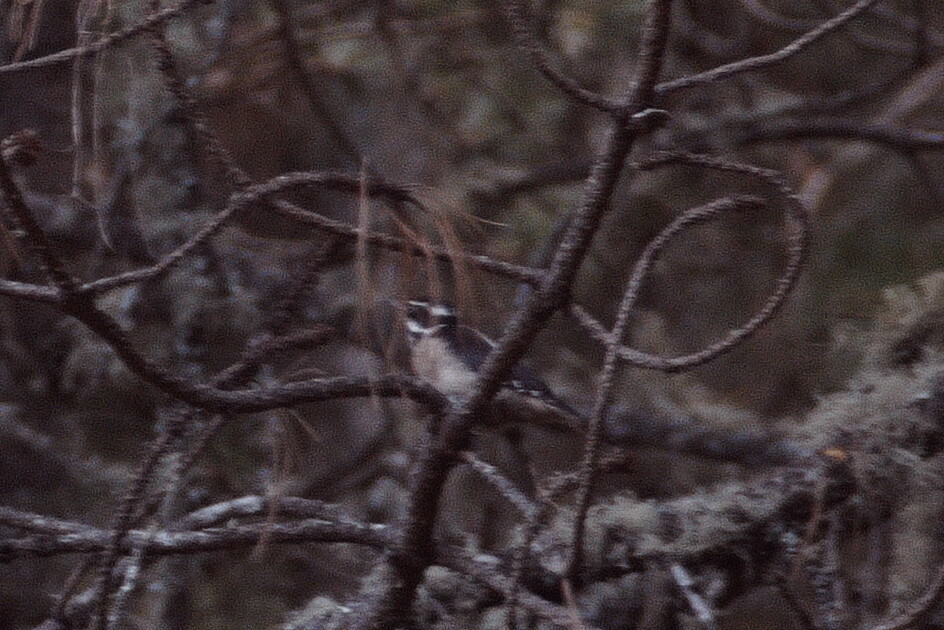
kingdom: Animalia
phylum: Chordata
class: Aves
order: Piciformes
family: Picidae
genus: Leuconotopicus
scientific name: Leuconotopicus villosus
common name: Hairy woodpecker
